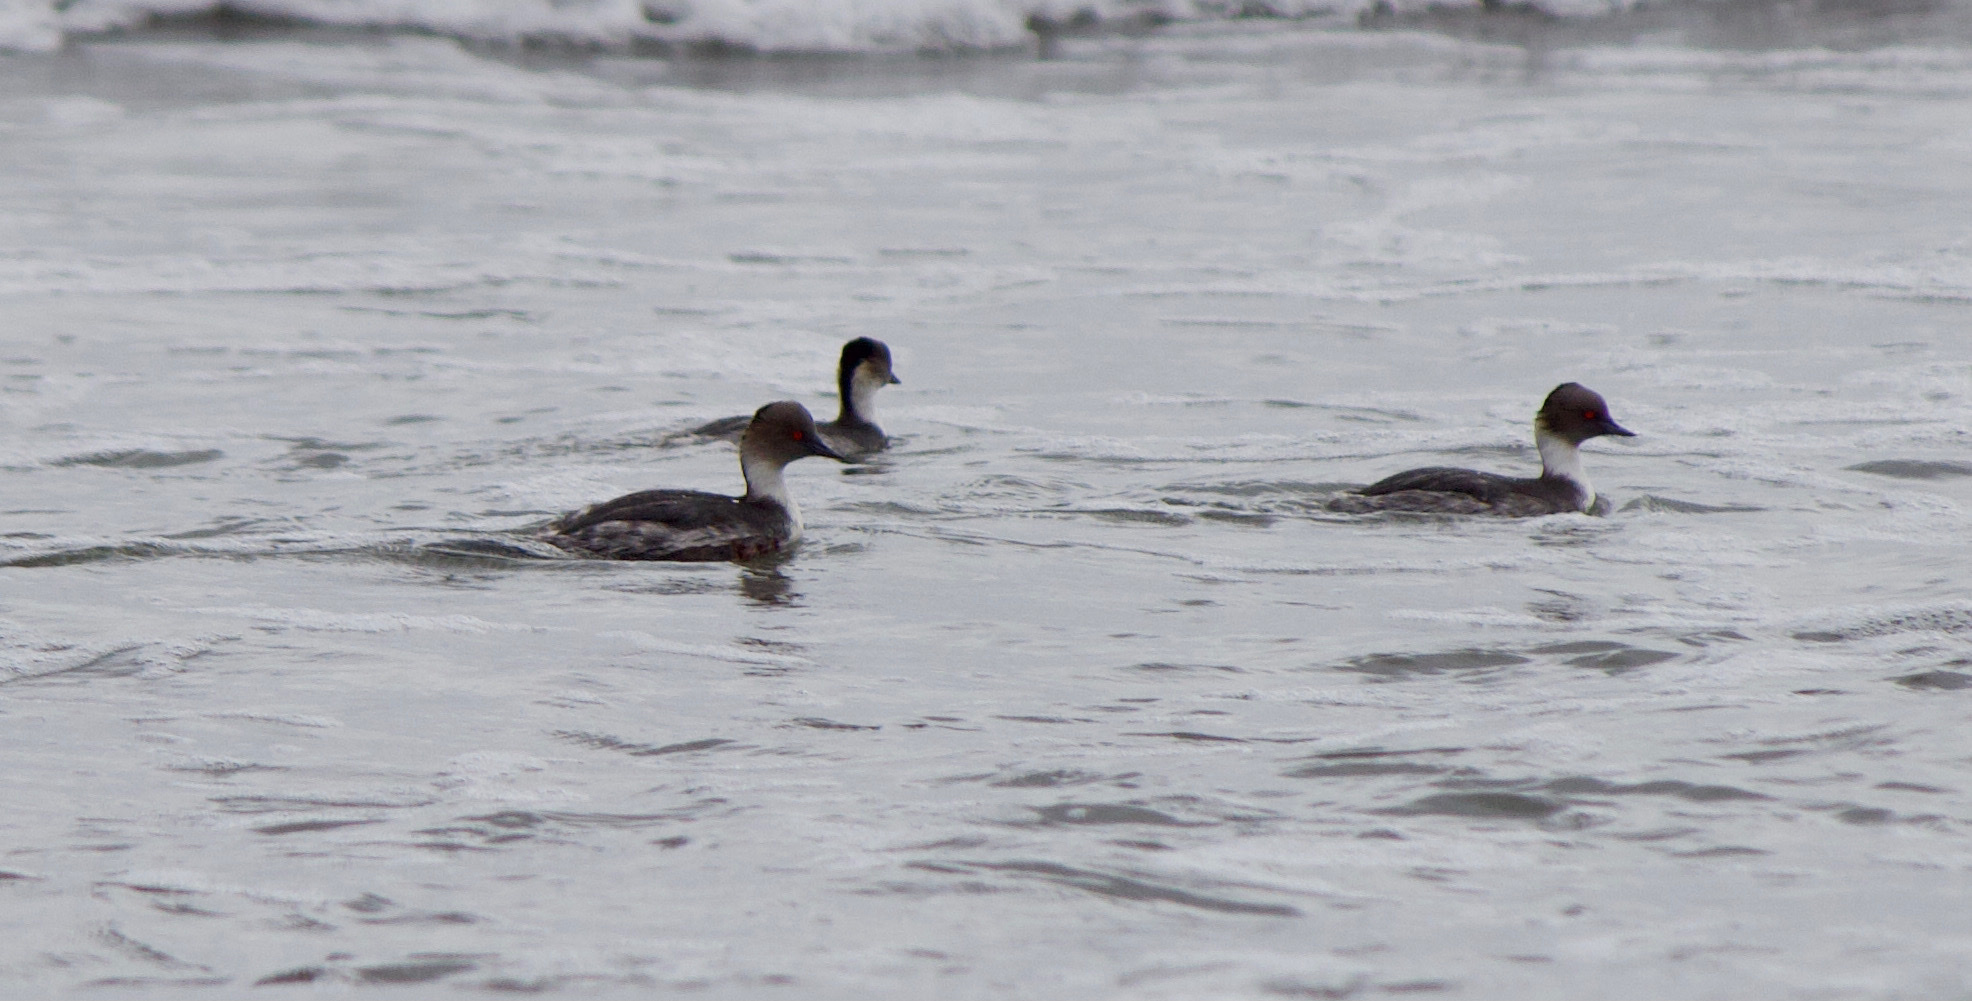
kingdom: Animalia
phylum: Chordata
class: Aves
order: Podicipediformes
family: Podicipedidae
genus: Podiceps
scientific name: Podiceps occipitalis
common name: Silvery grebe
